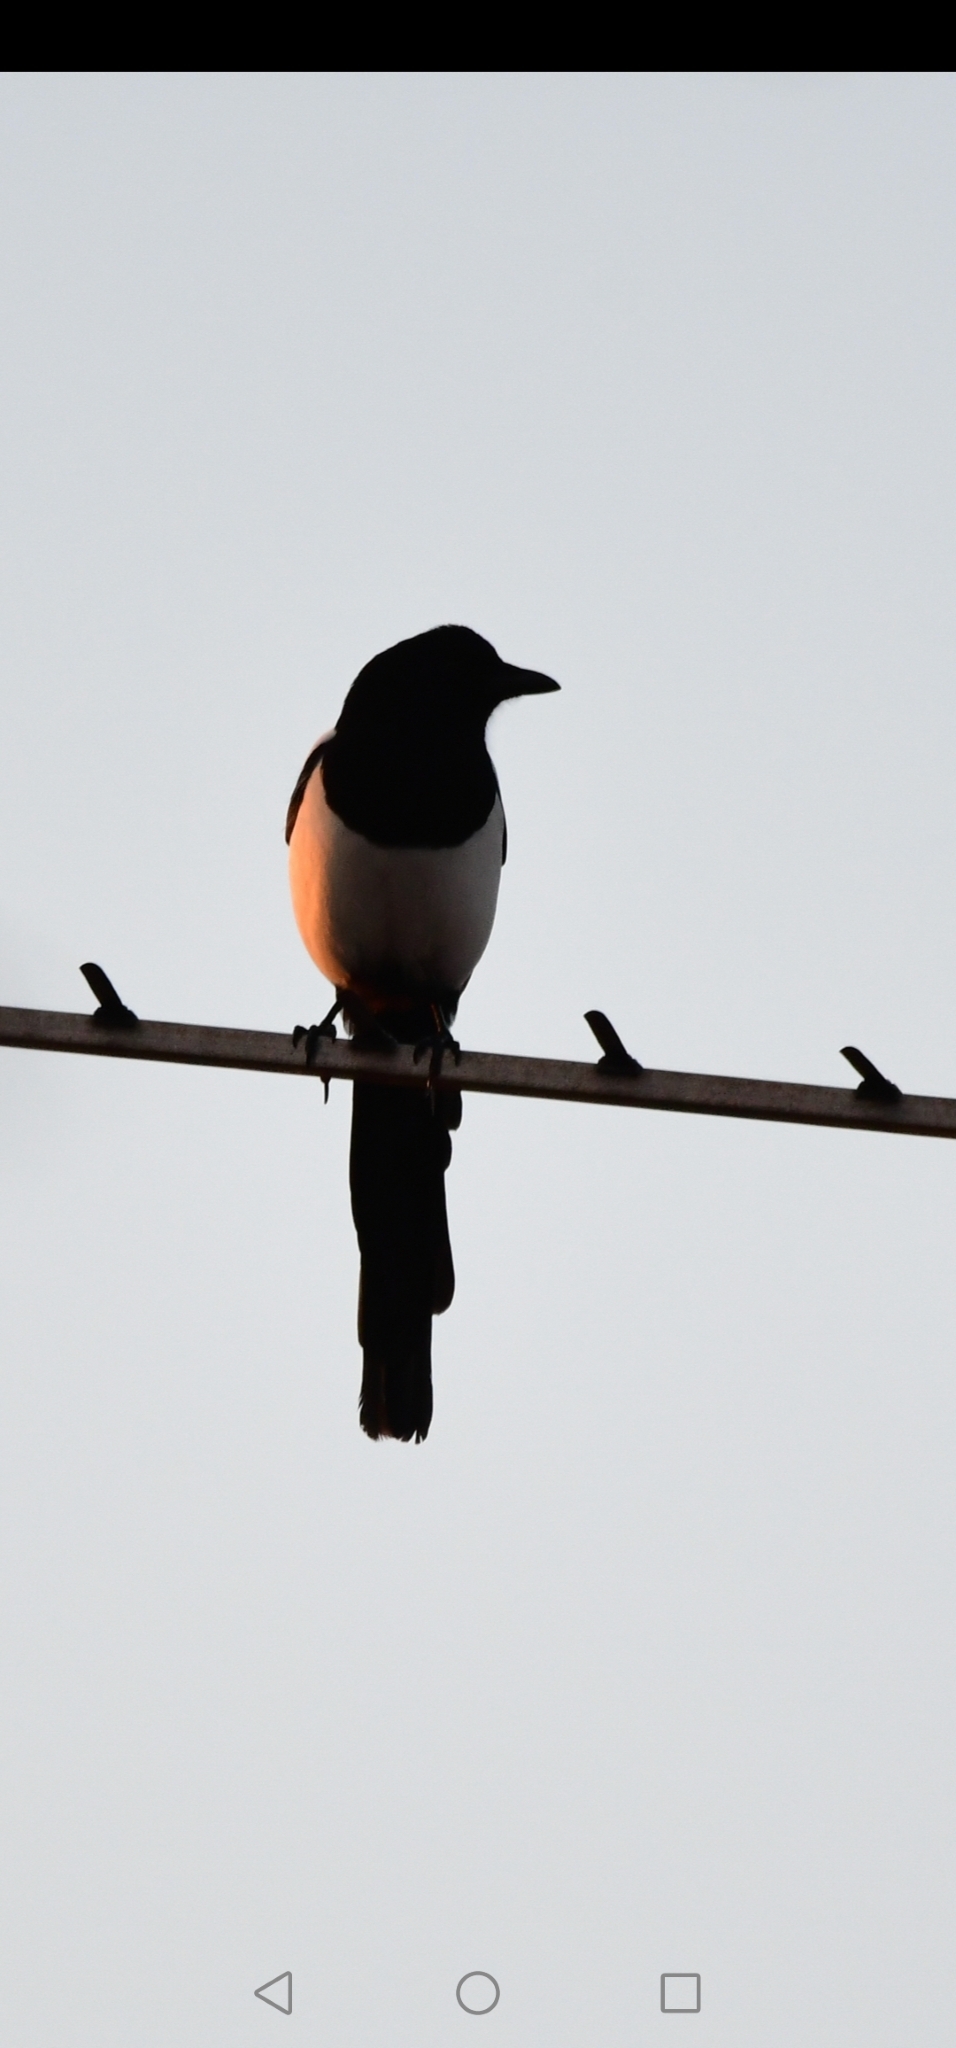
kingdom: Animalia
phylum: Chordata
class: Aves
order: Passeriformes
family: Corvidae
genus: Pica
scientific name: Pica pica
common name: Eurasian magpie
